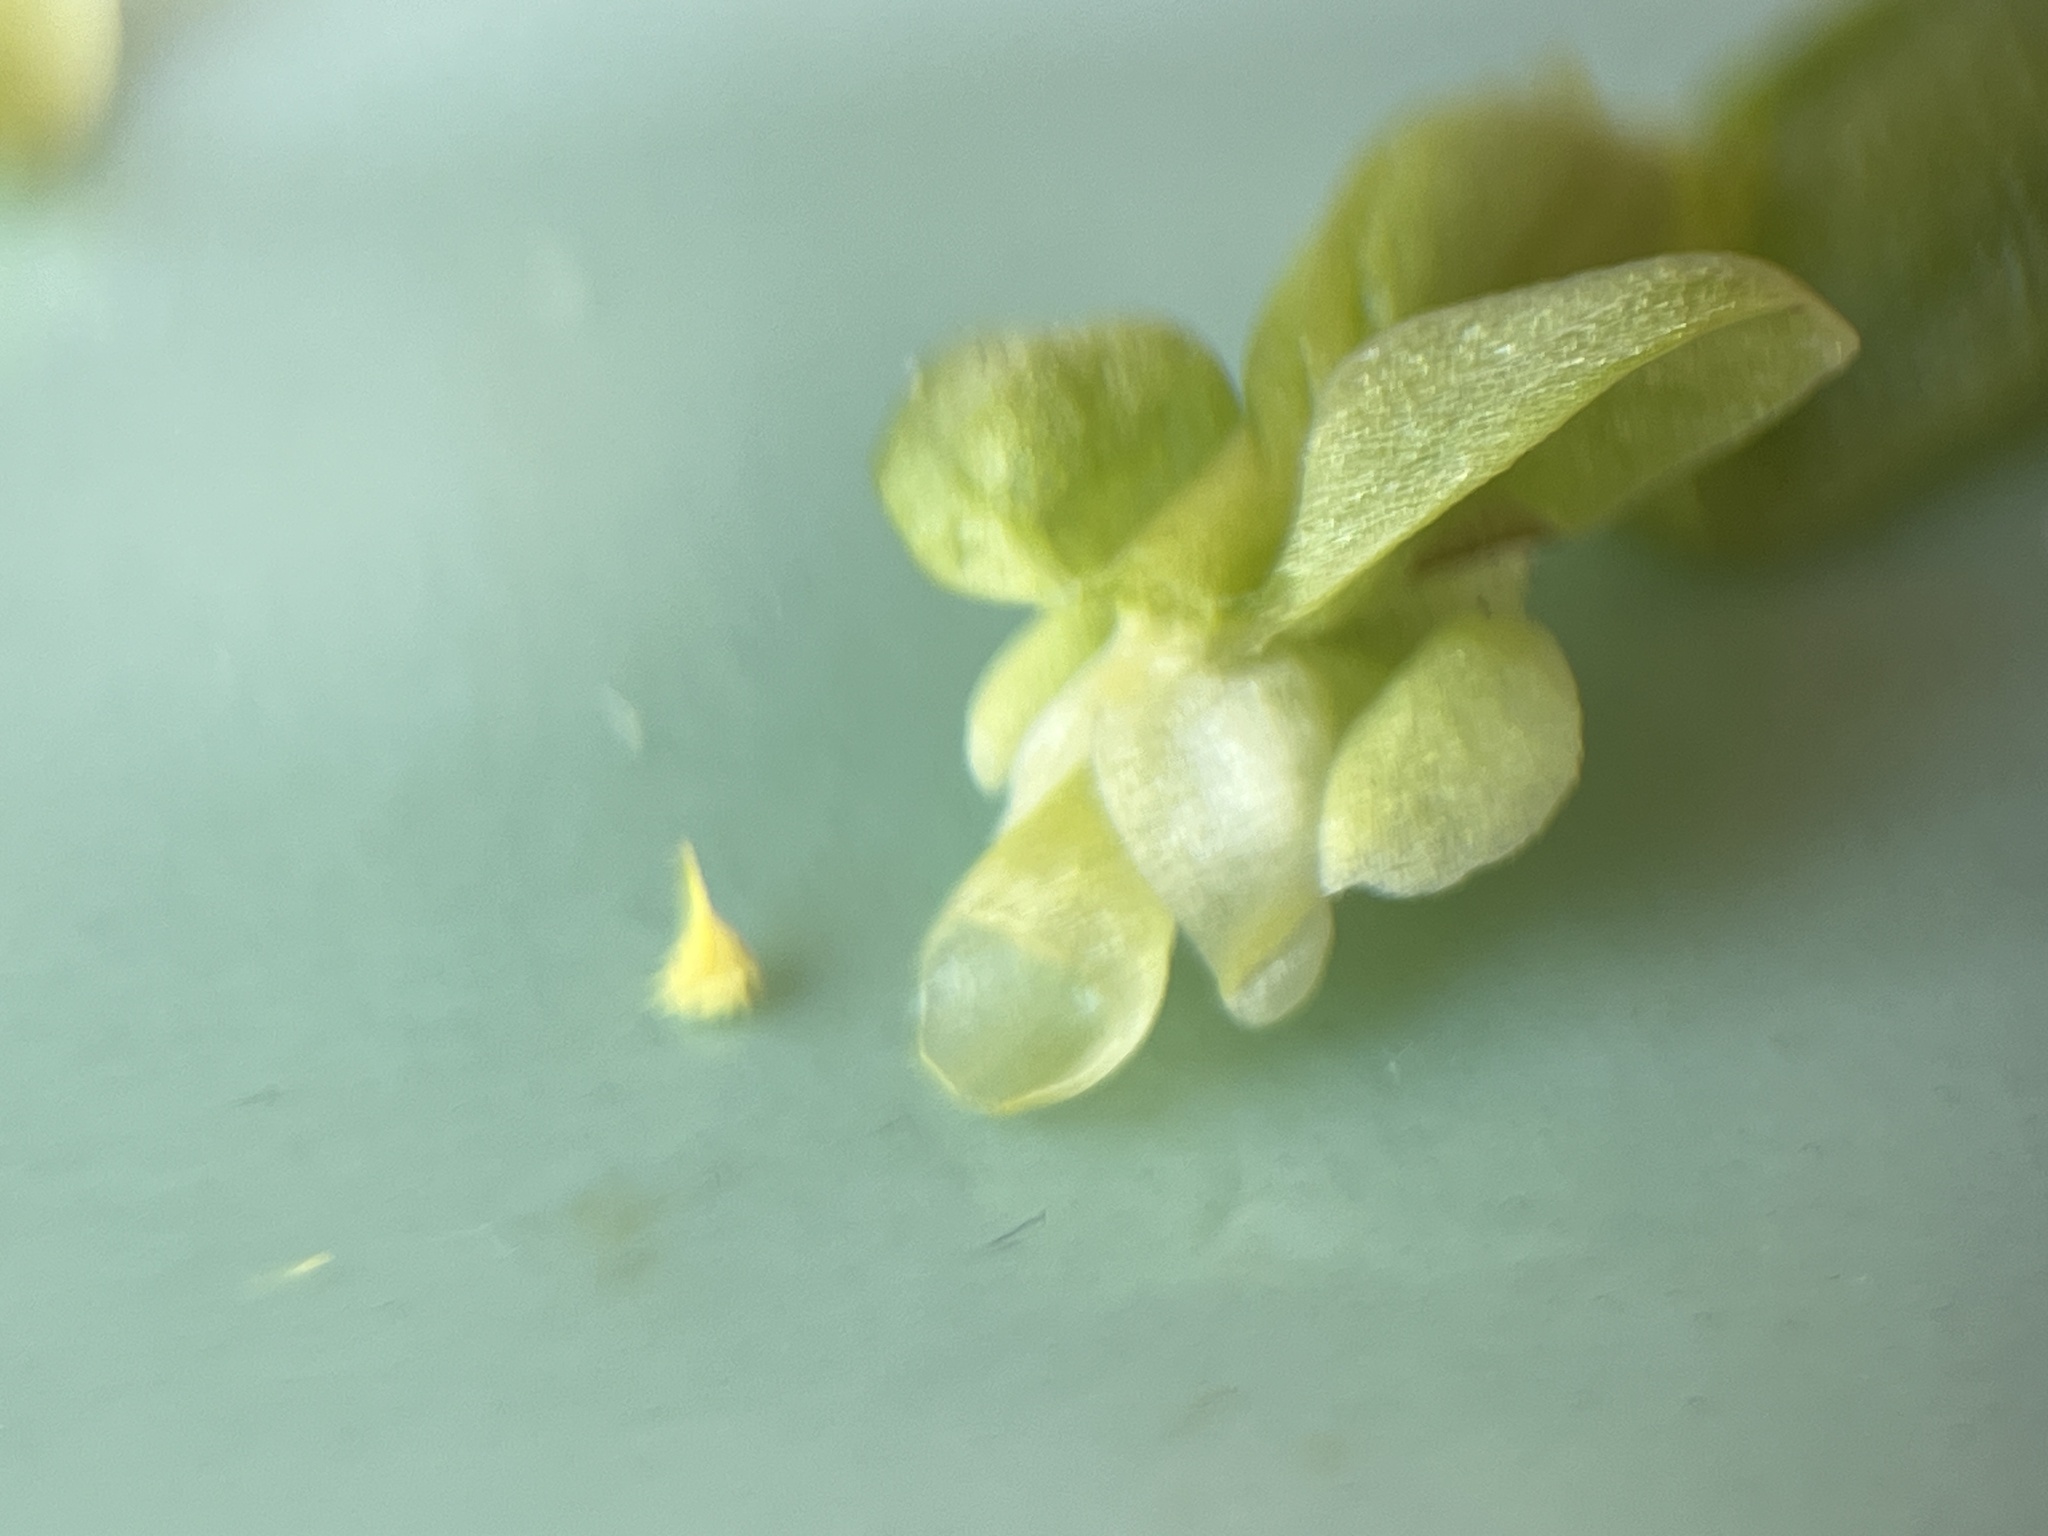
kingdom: Plantae
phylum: Tracheophyta
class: Liliopsida
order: Asparagales
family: Orchidaceae
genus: Pterygodium
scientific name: Pterygodium volucris
